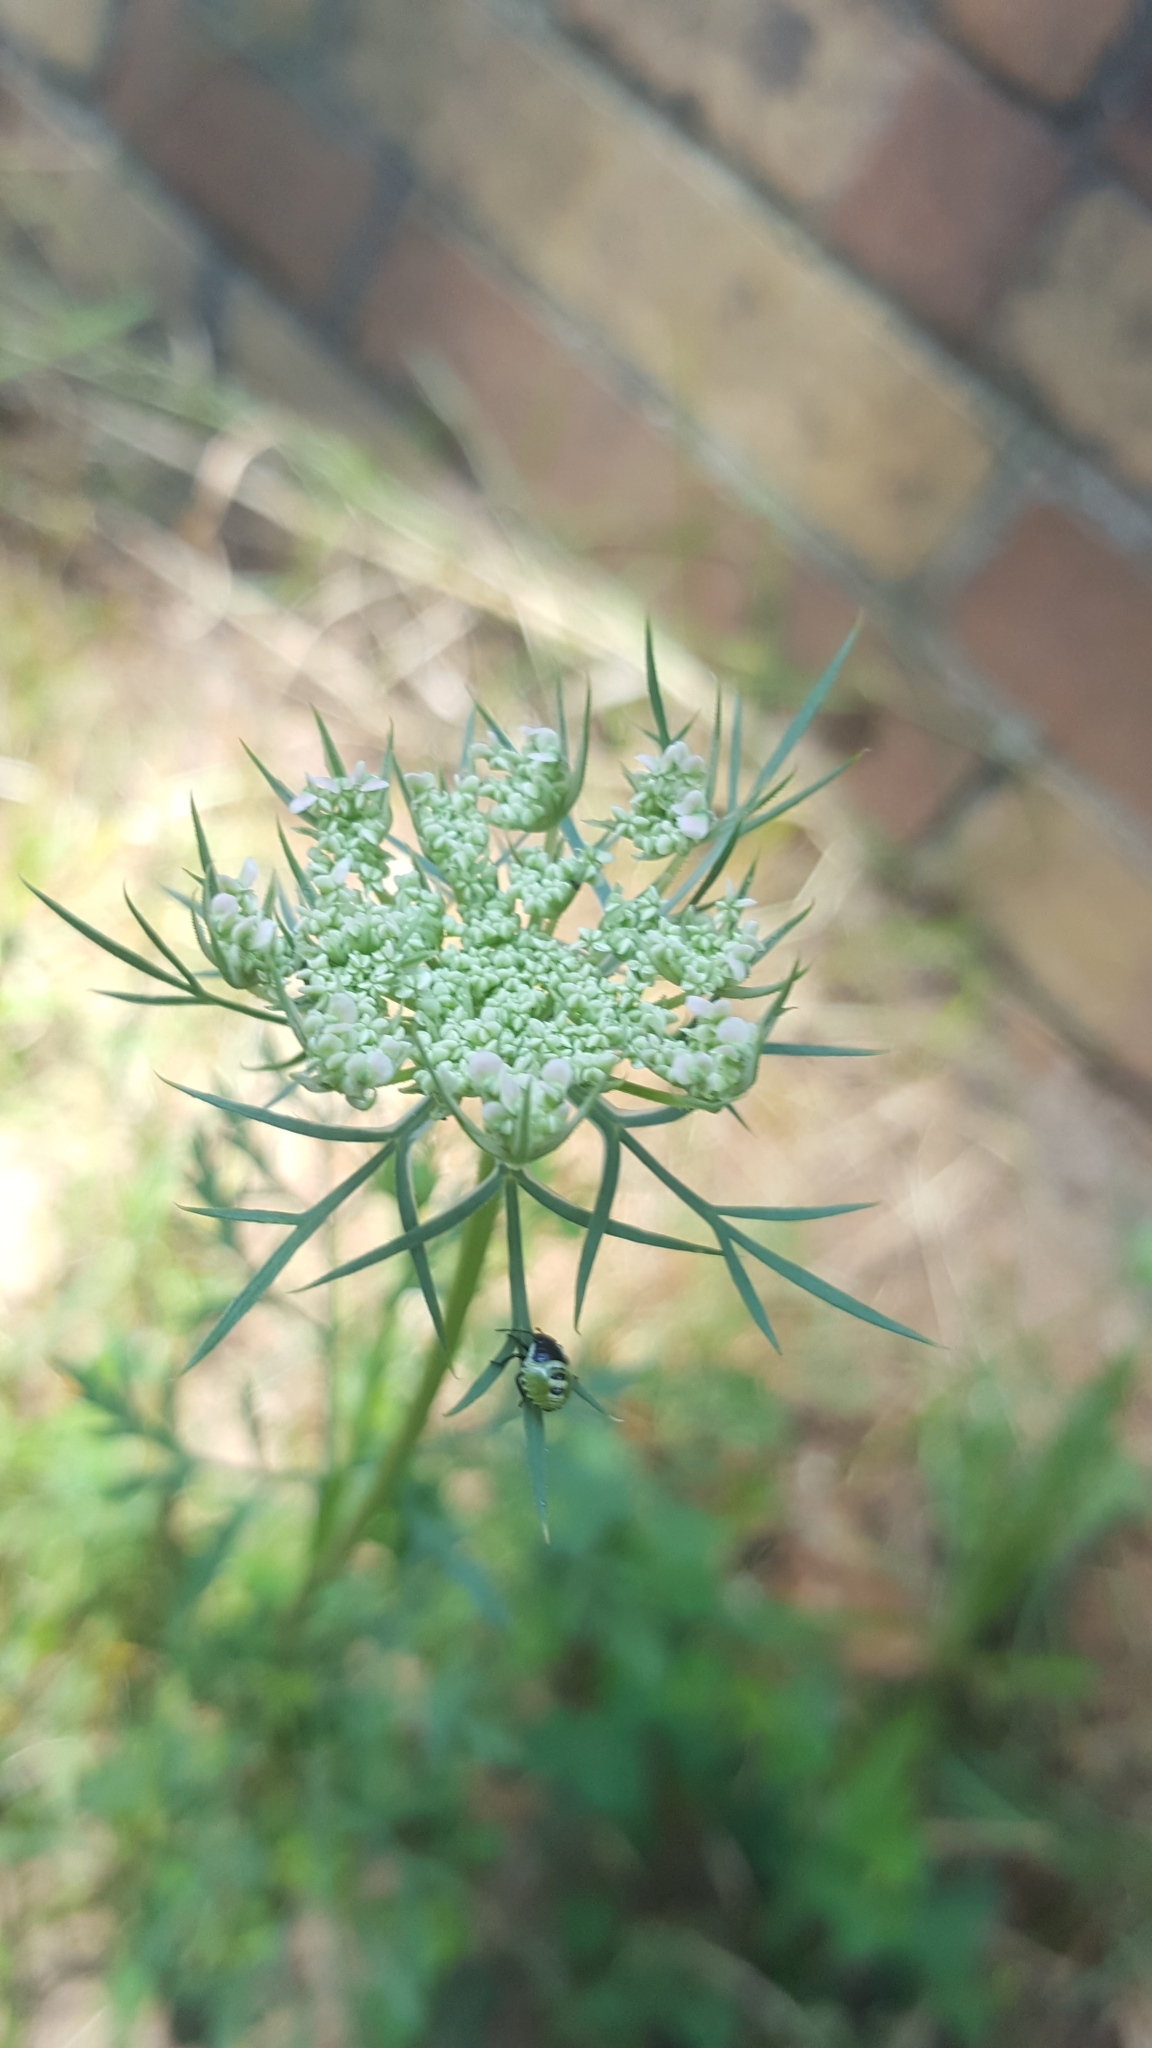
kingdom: Plantae
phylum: Tracheophyta
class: Magnoliopsida
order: Apiales
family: Apiaceae
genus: Daucus
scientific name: Daucus carota
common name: Wild carrot
